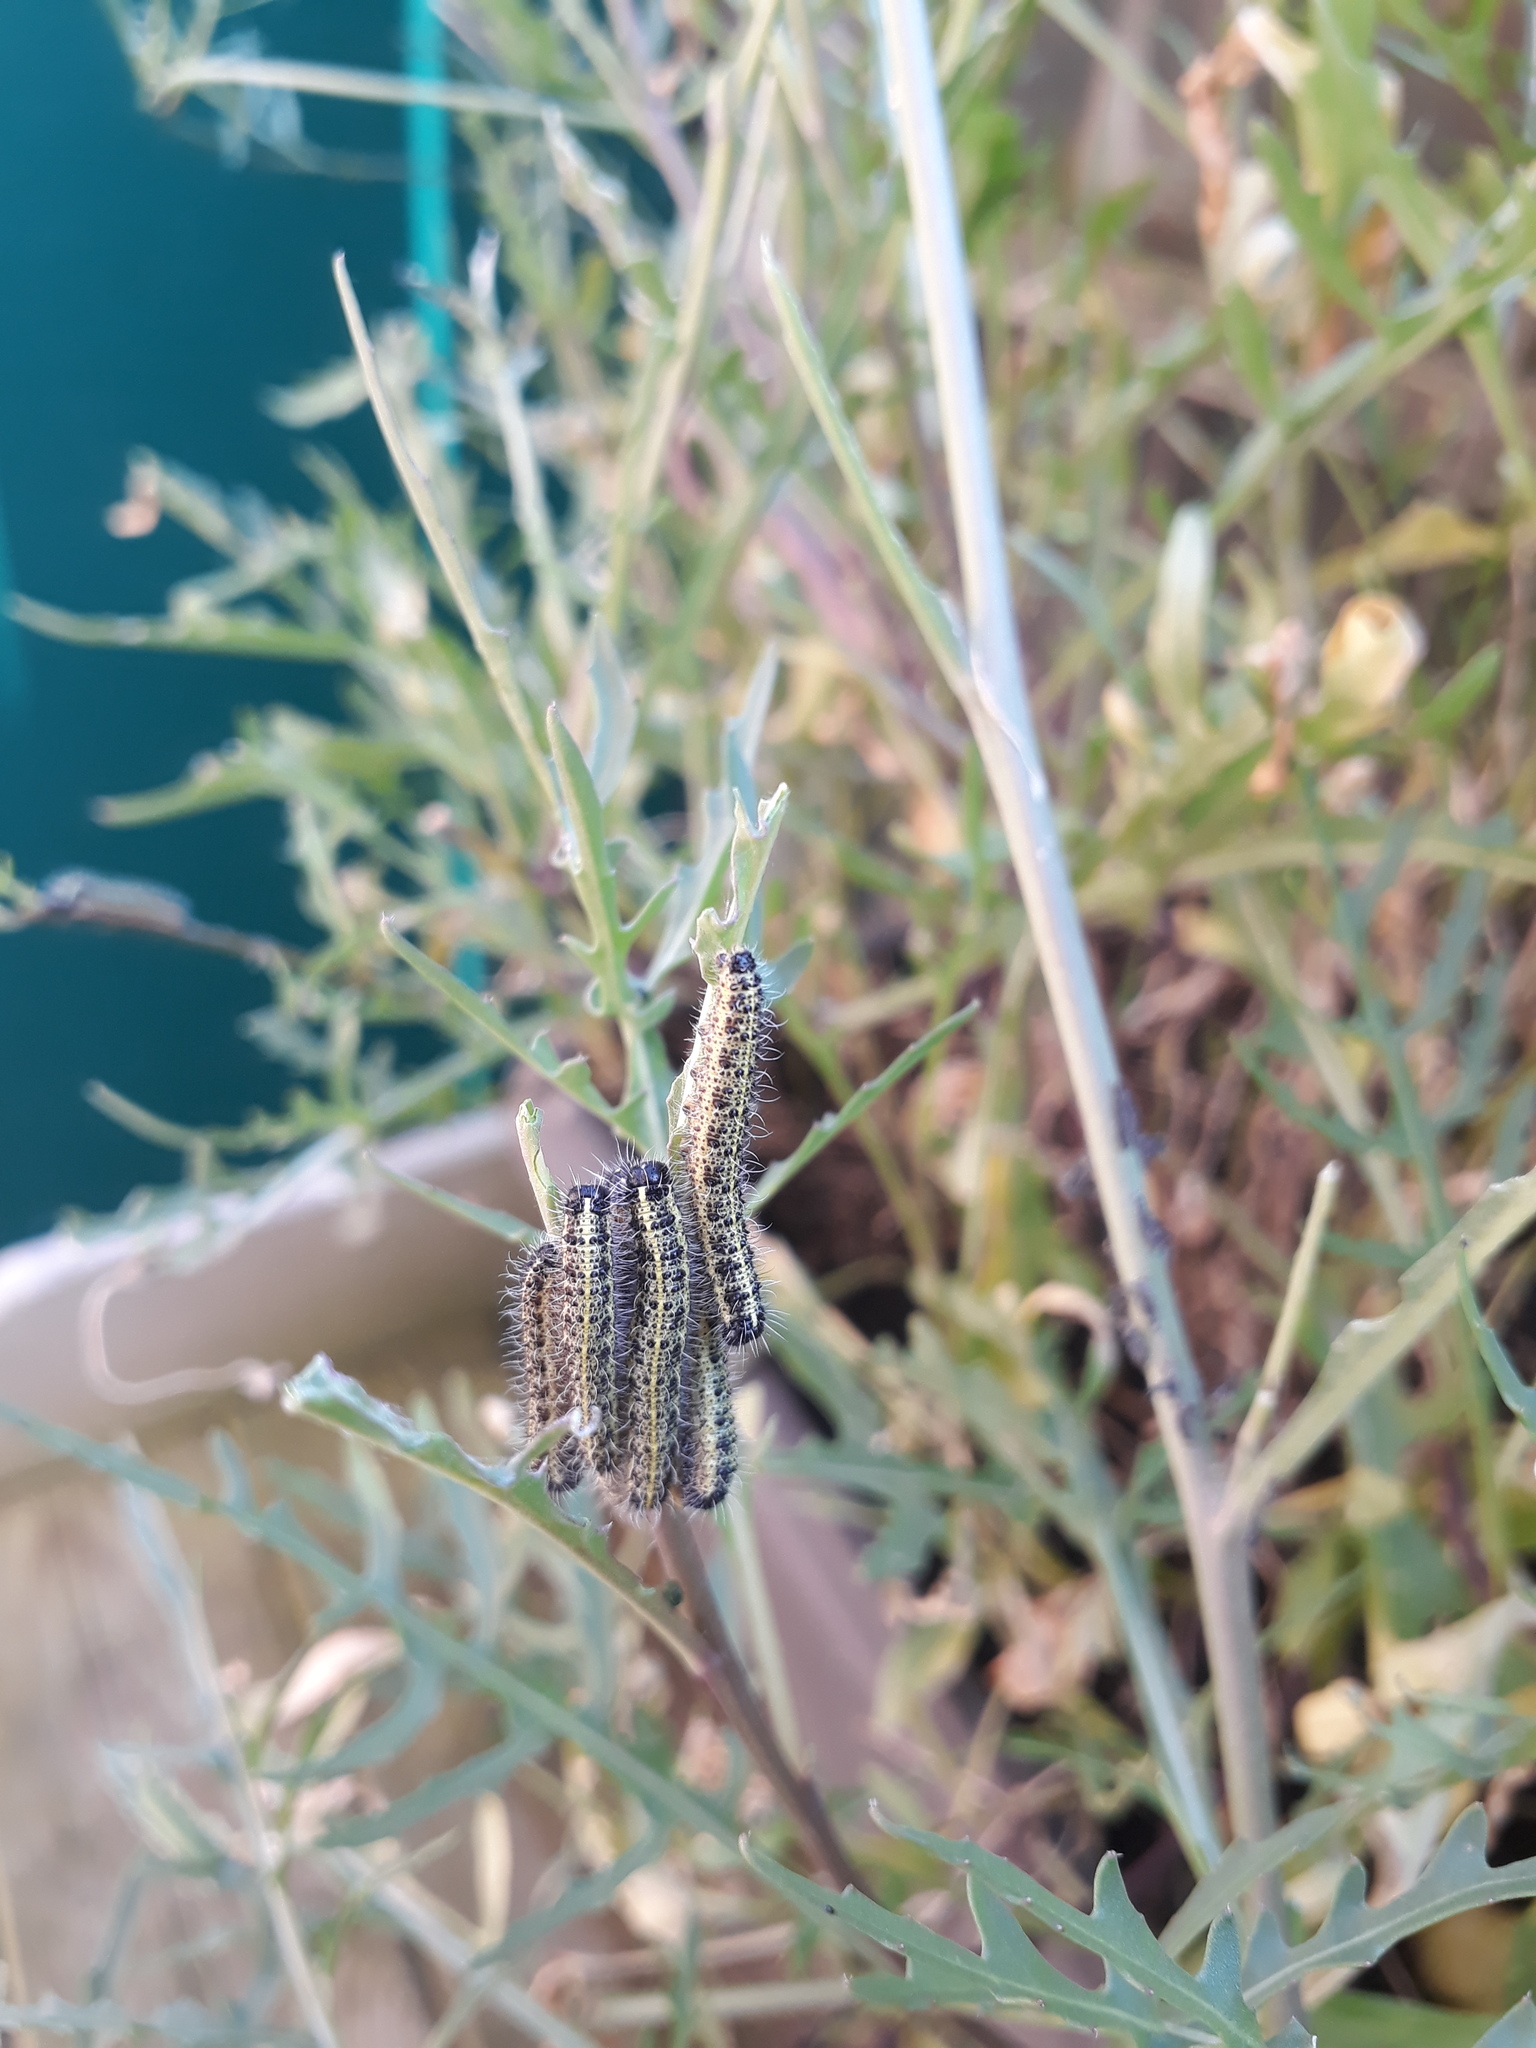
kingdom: Animalia
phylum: Arthropoda
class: Insecta
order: Lepidoptera
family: Pieridae
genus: Pieris
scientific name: Pieris brassicae
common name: Large white
